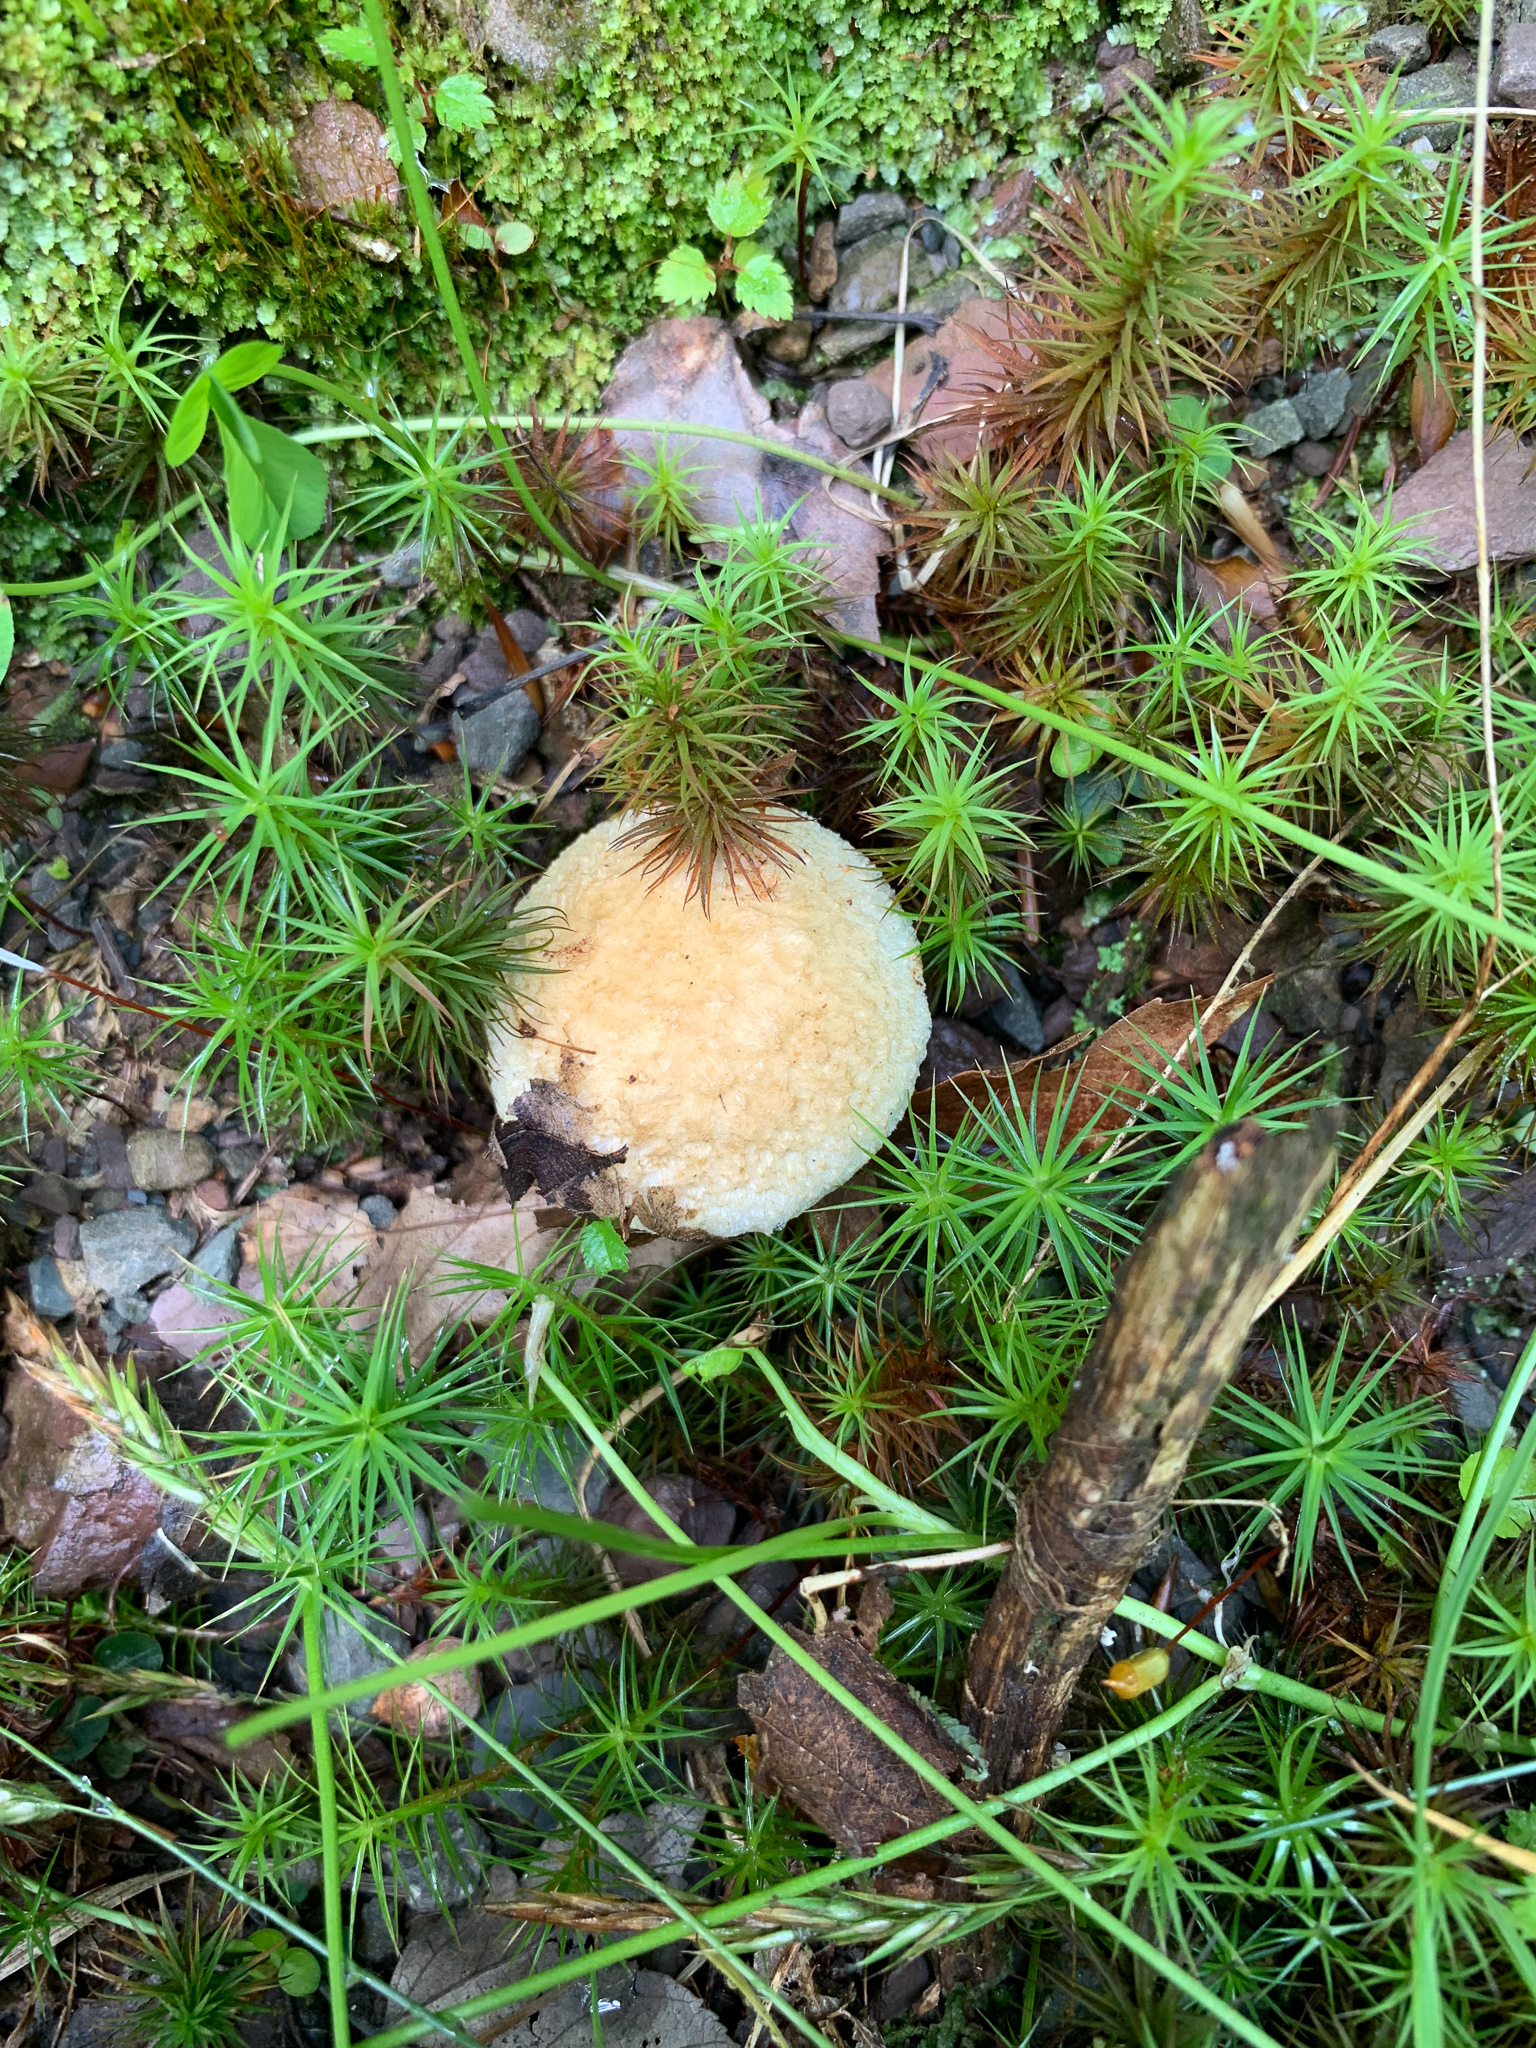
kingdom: Fungi
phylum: Basidiomycota
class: Agaricomycetes
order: Boletales
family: Gyroporaceae
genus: Gyroporus
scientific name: Gyroporus cyanescens
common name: Cornflower bolete
